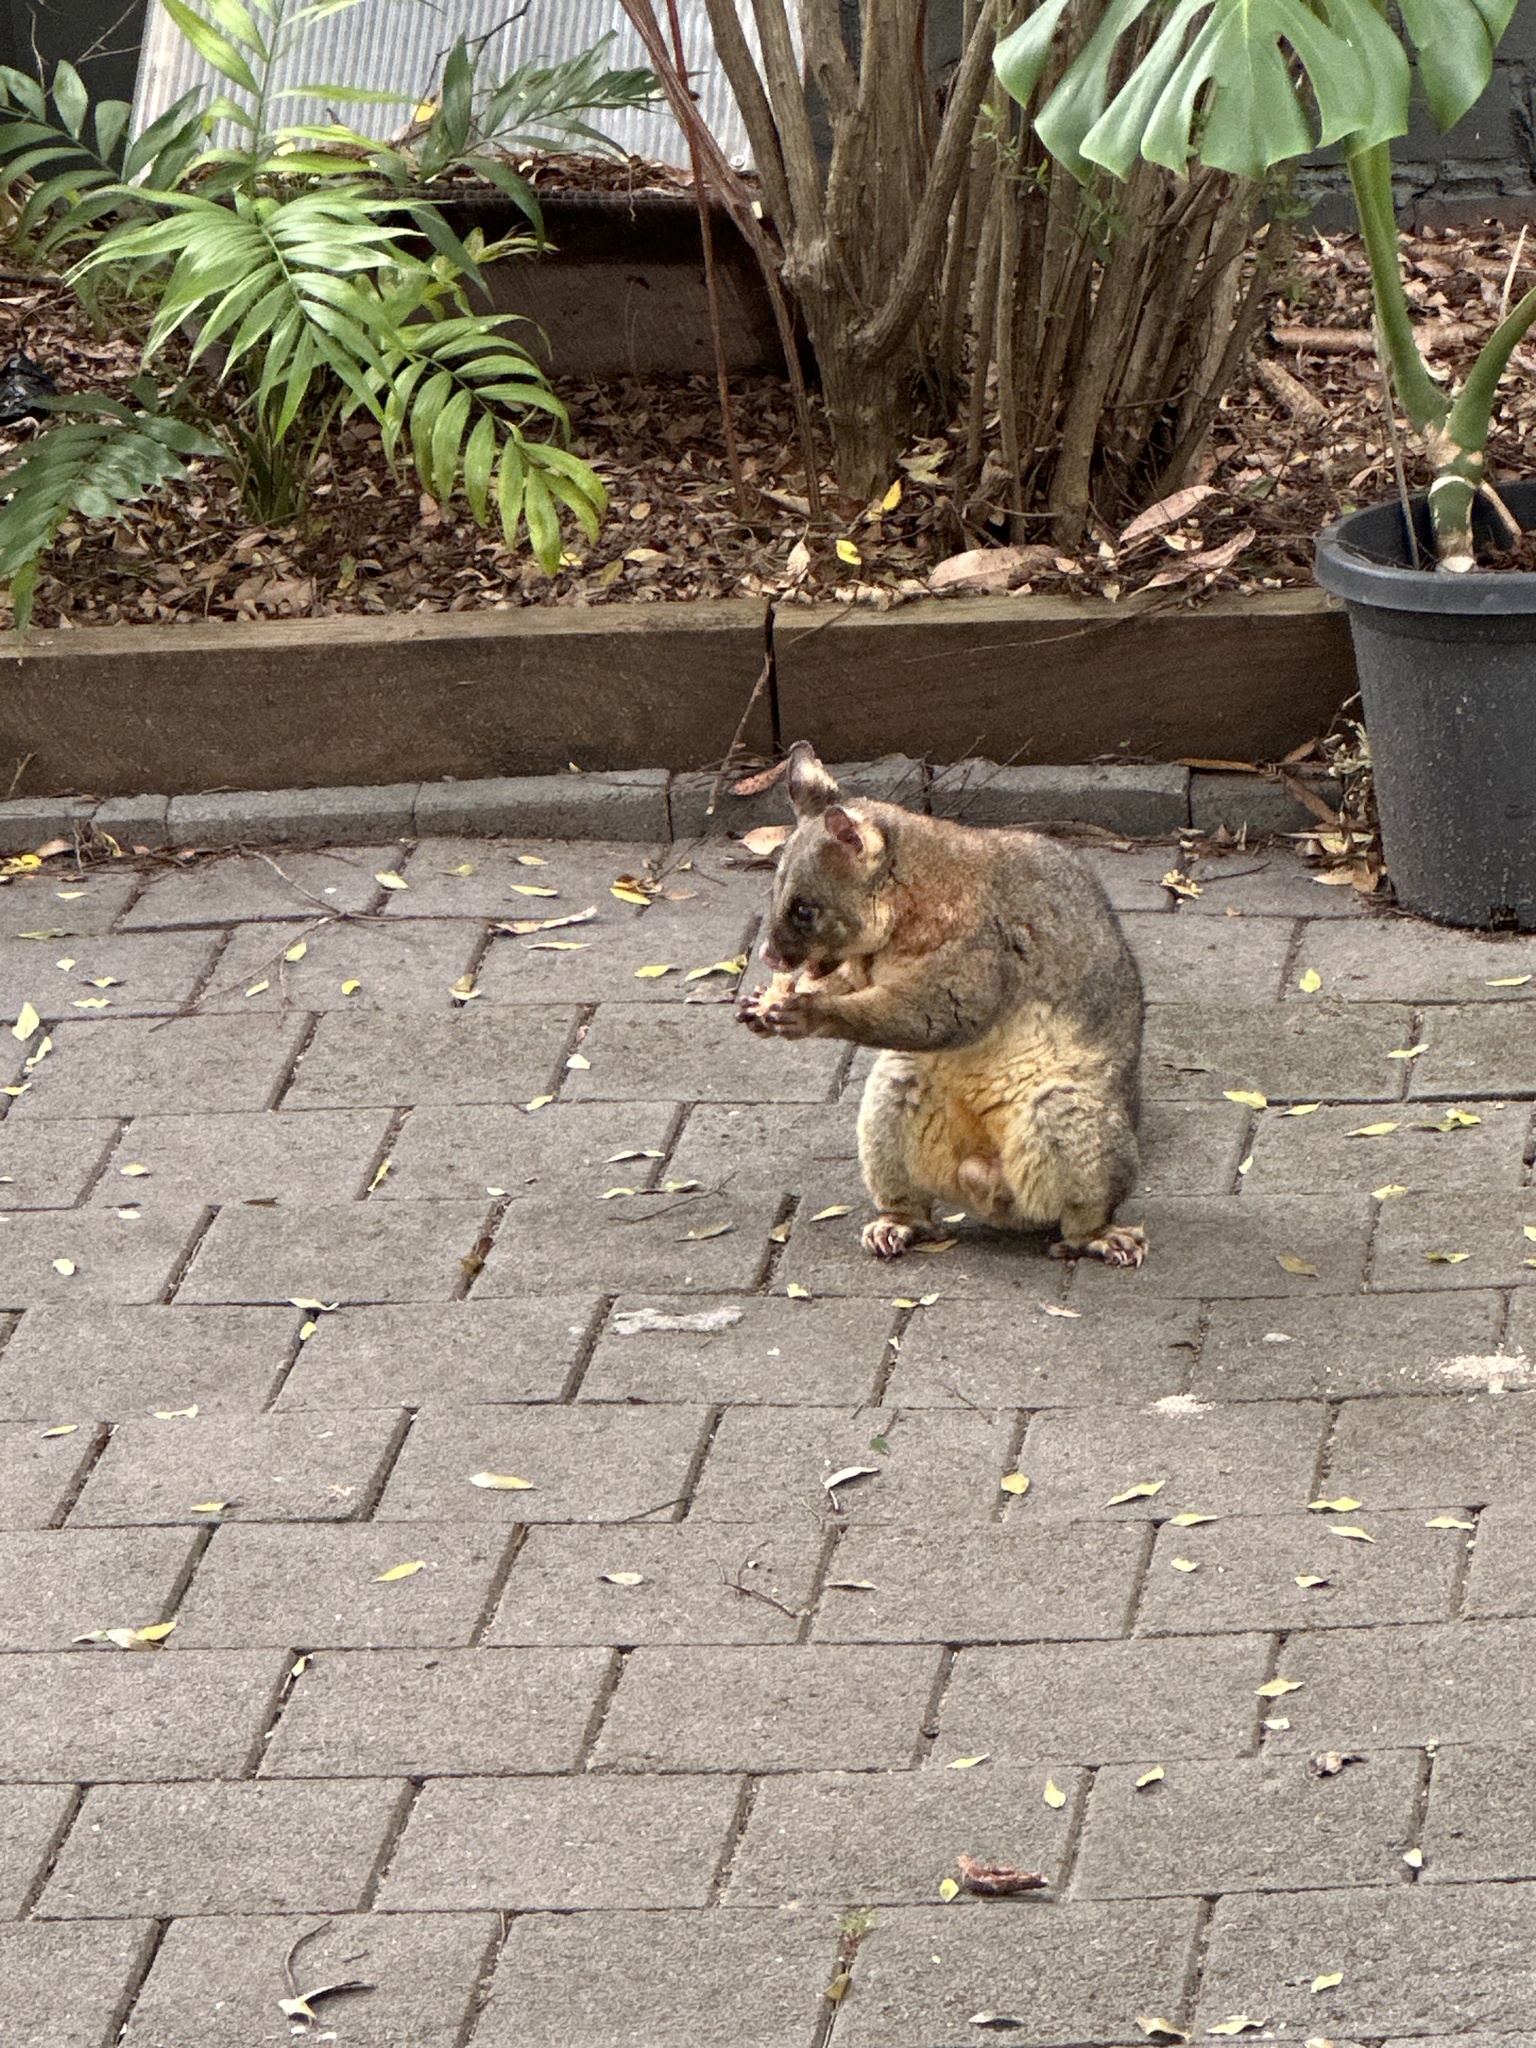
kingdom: Animalia
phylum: Chordata
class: Mammalia
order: Diprotodontia
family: Phalangeridae
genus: Trichosurus
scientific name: Trichosurus vulpecula
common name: Common brushtail
